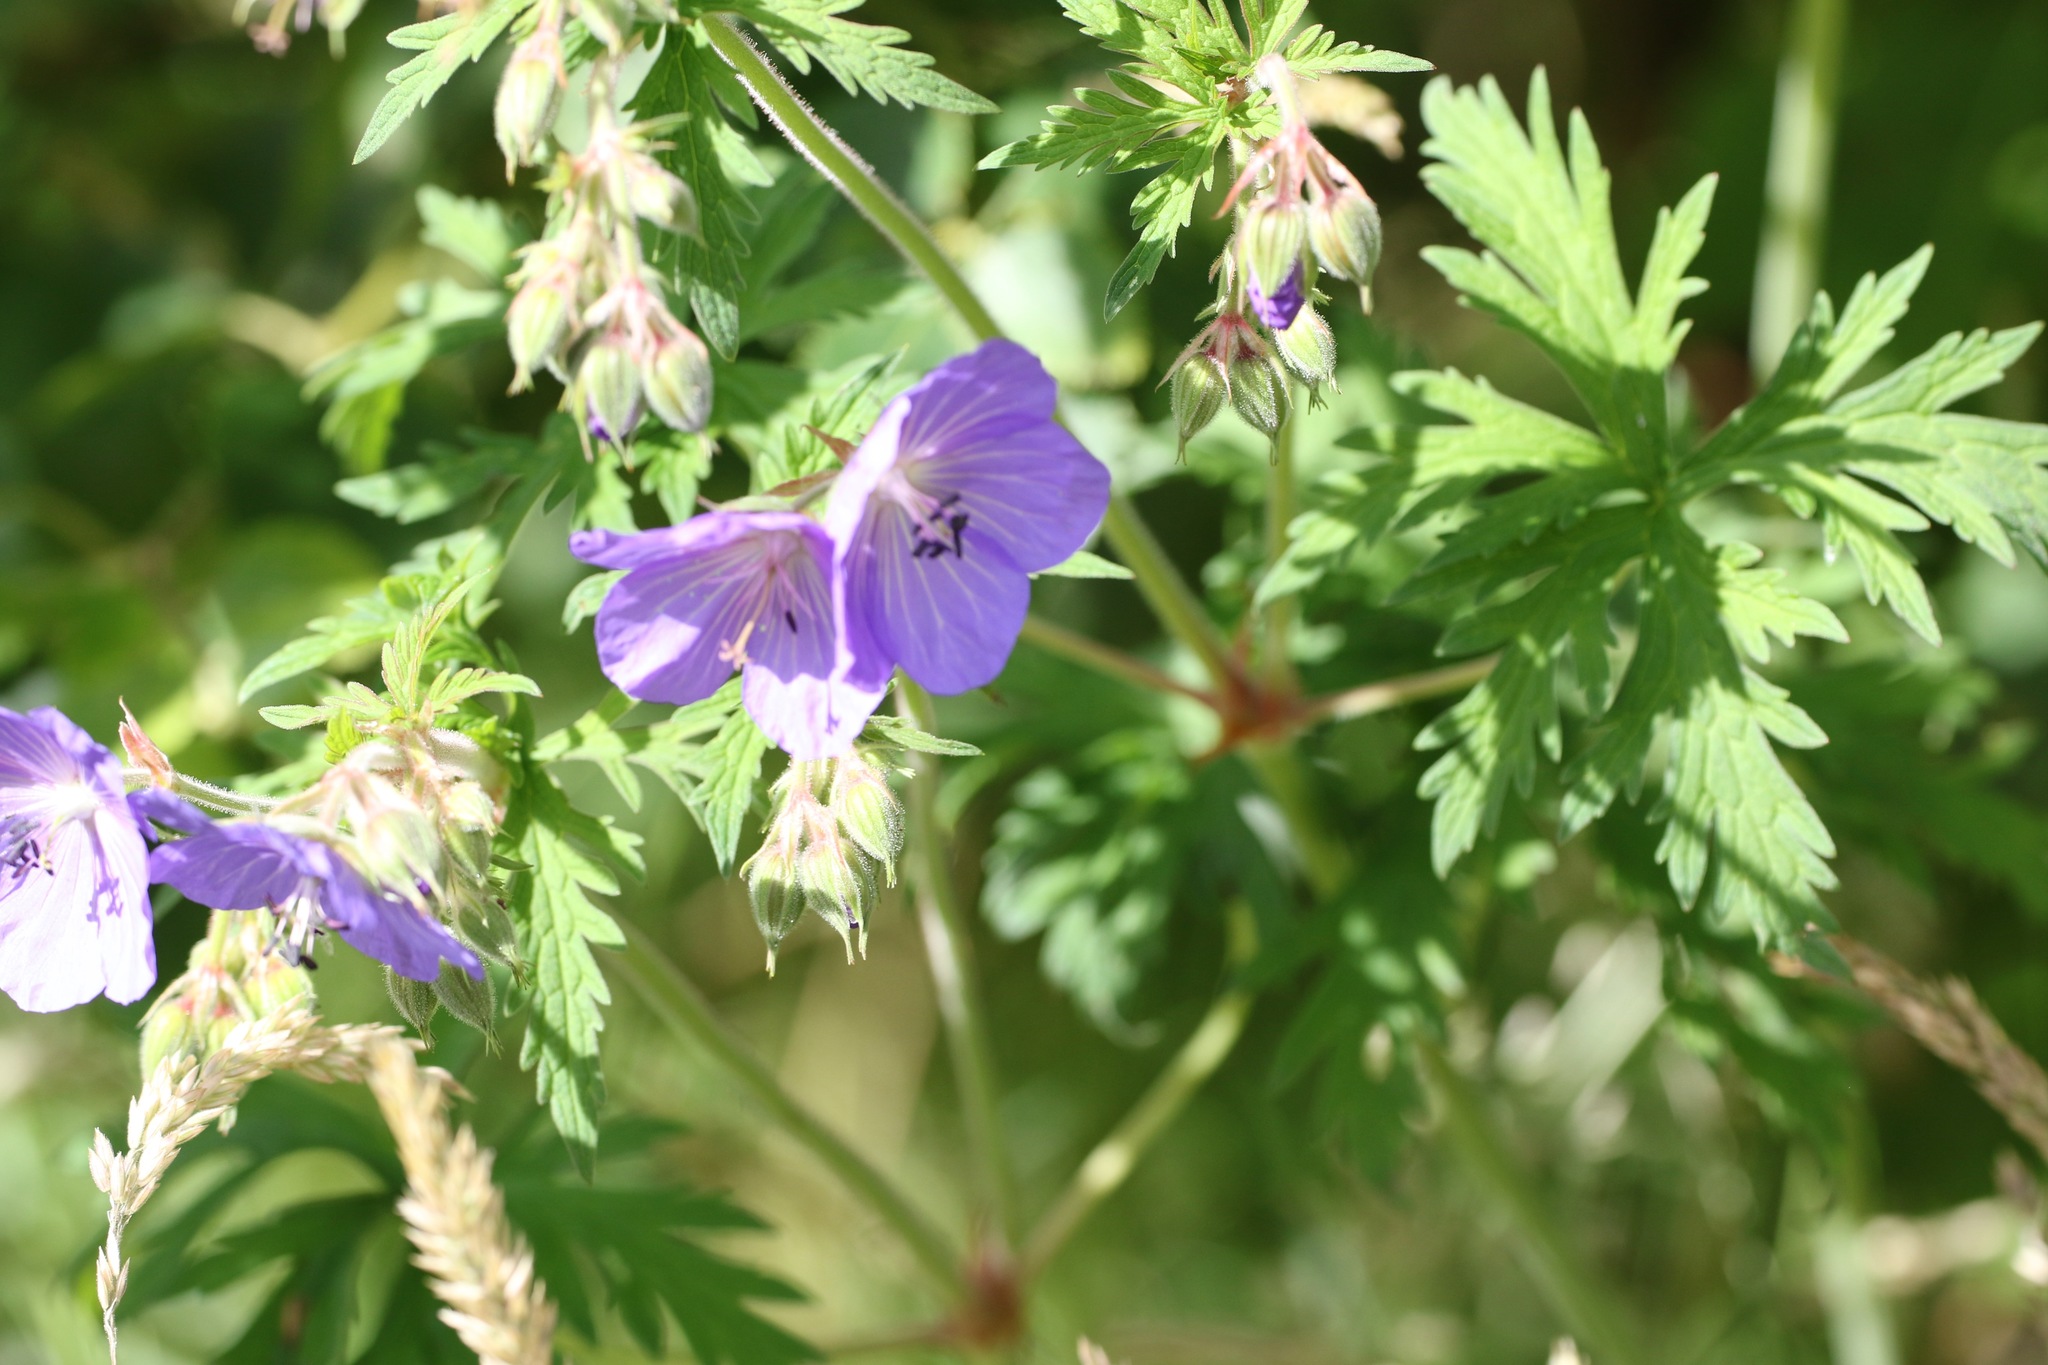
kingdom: Plantae
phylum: Tracheophyta
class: Magnoliopsida
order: Geraniales
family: Geraniaceae
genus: Geranium
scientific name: Geranium pratense
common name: Meadow crane's-bill
